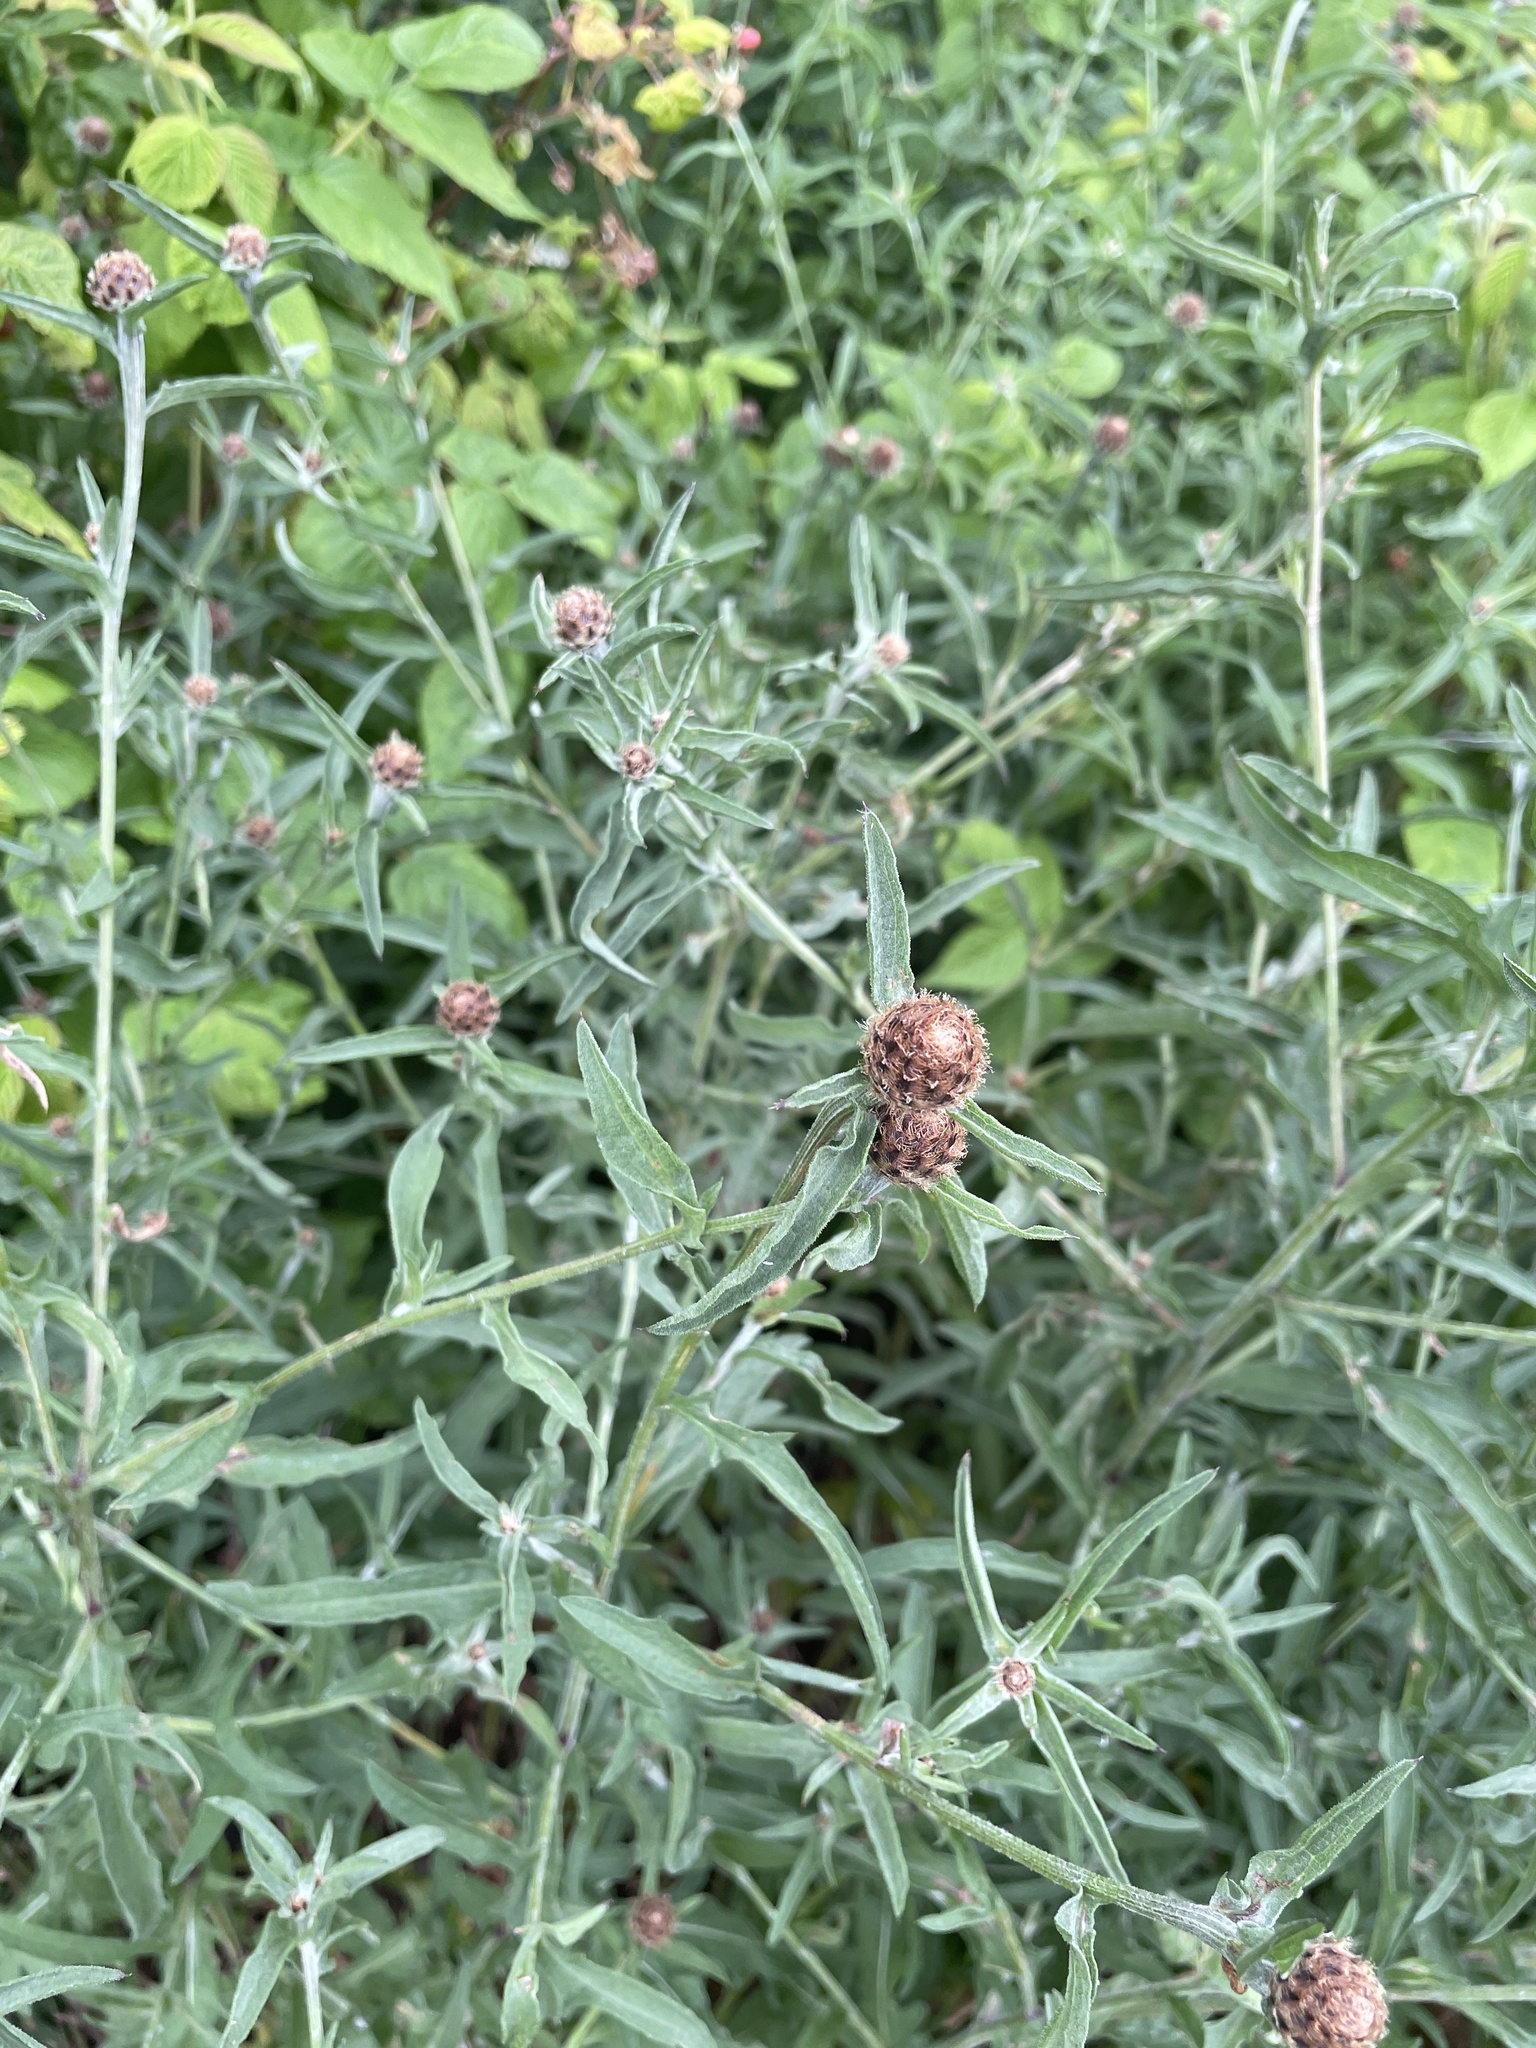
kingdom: Plantae
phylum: Tracheophyta
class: Magnoliopsida
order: Asterales
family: Asteraceae
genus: Centaurea
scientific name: Centaurea nigra
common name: Lesser knapweed
